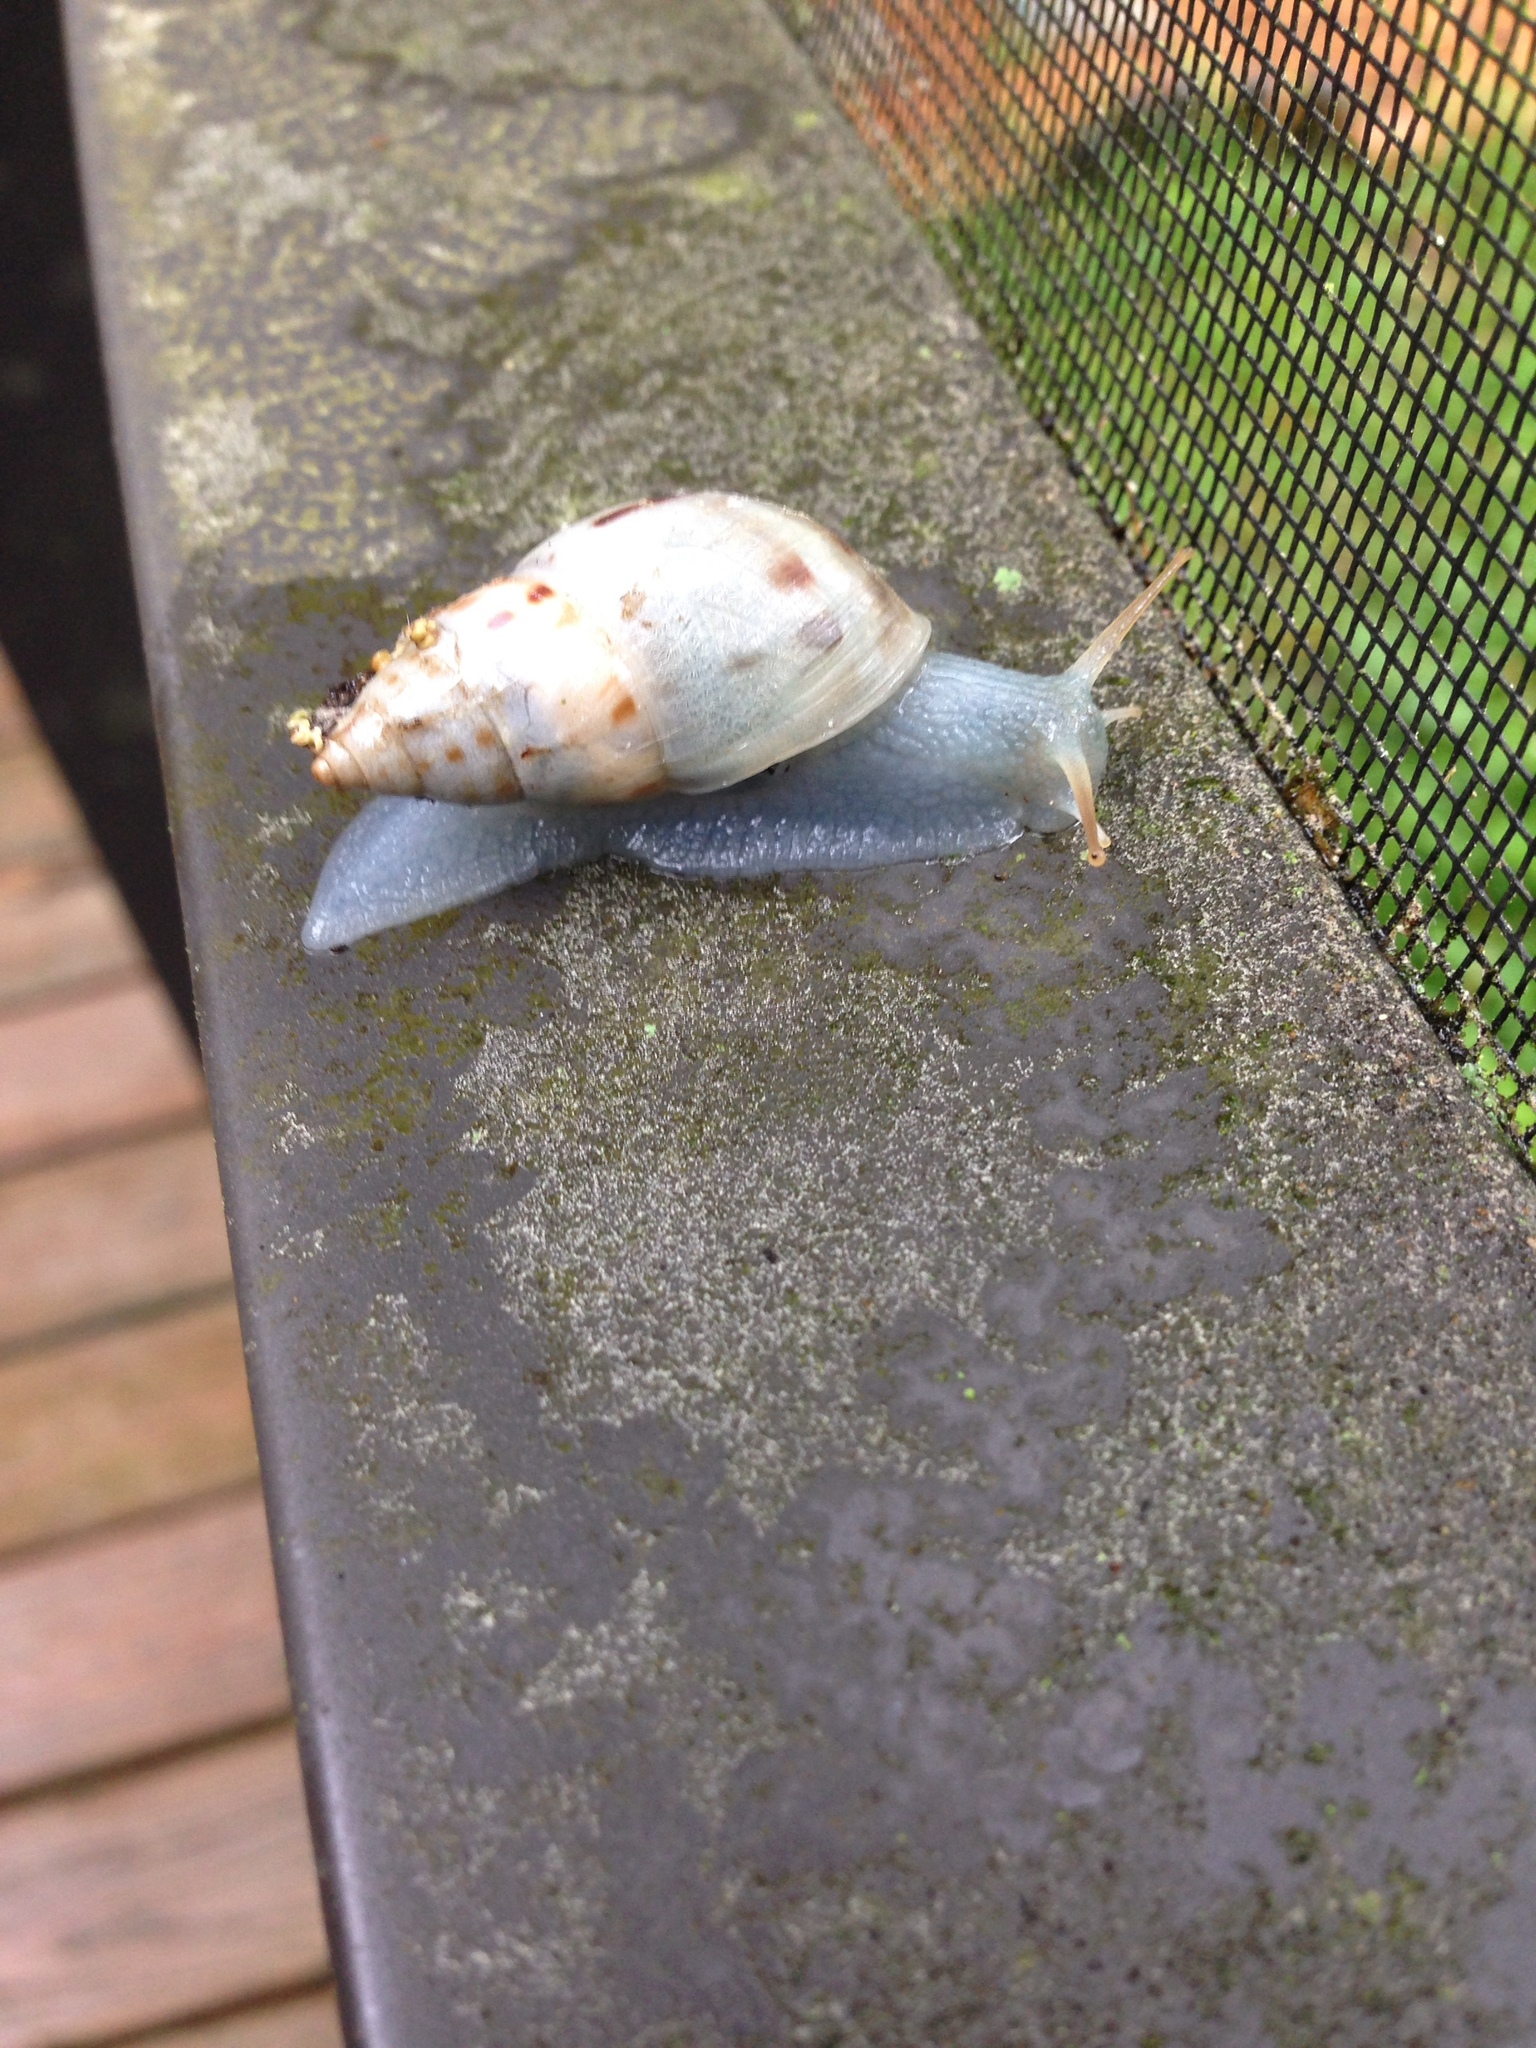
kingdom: Animalia
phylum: Mollusca
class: Gastropoda
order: Stylommatophora
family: Bulimulidae
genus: Drymaeus
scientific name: Drymaeus dormani
